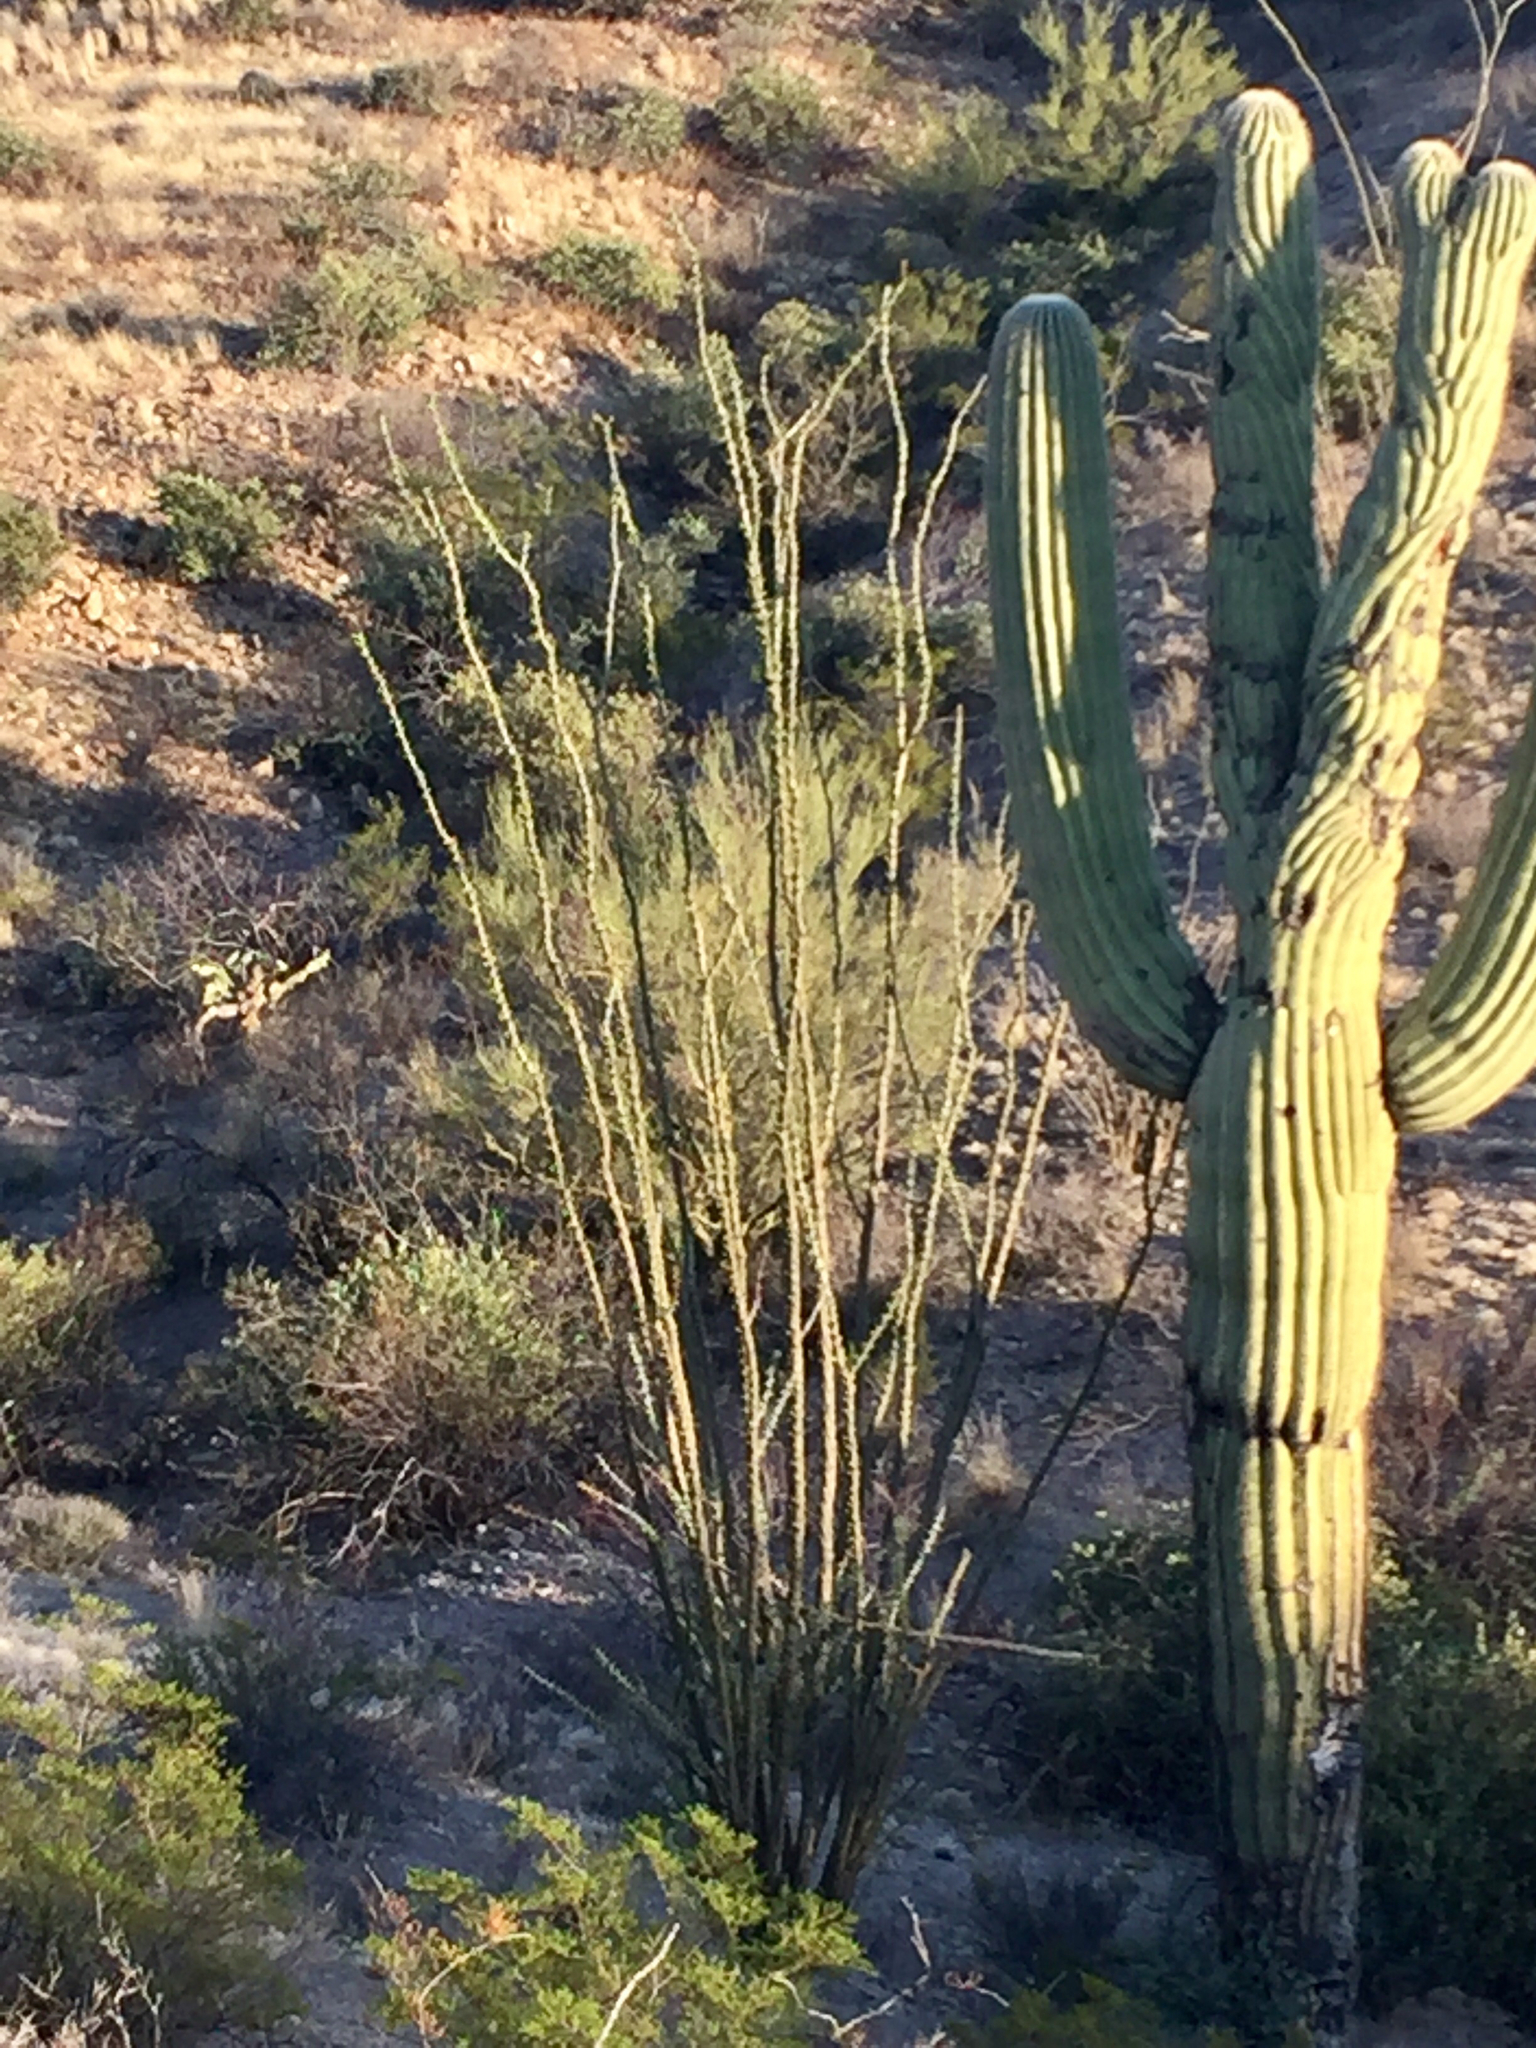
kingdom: Plantae
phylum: Tracheophyta
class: Magnoliopsida
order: Ericales
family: Fouquieriaceae
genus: Fouquieria
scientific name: Fouquieria splendens
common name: Vine-cactus
